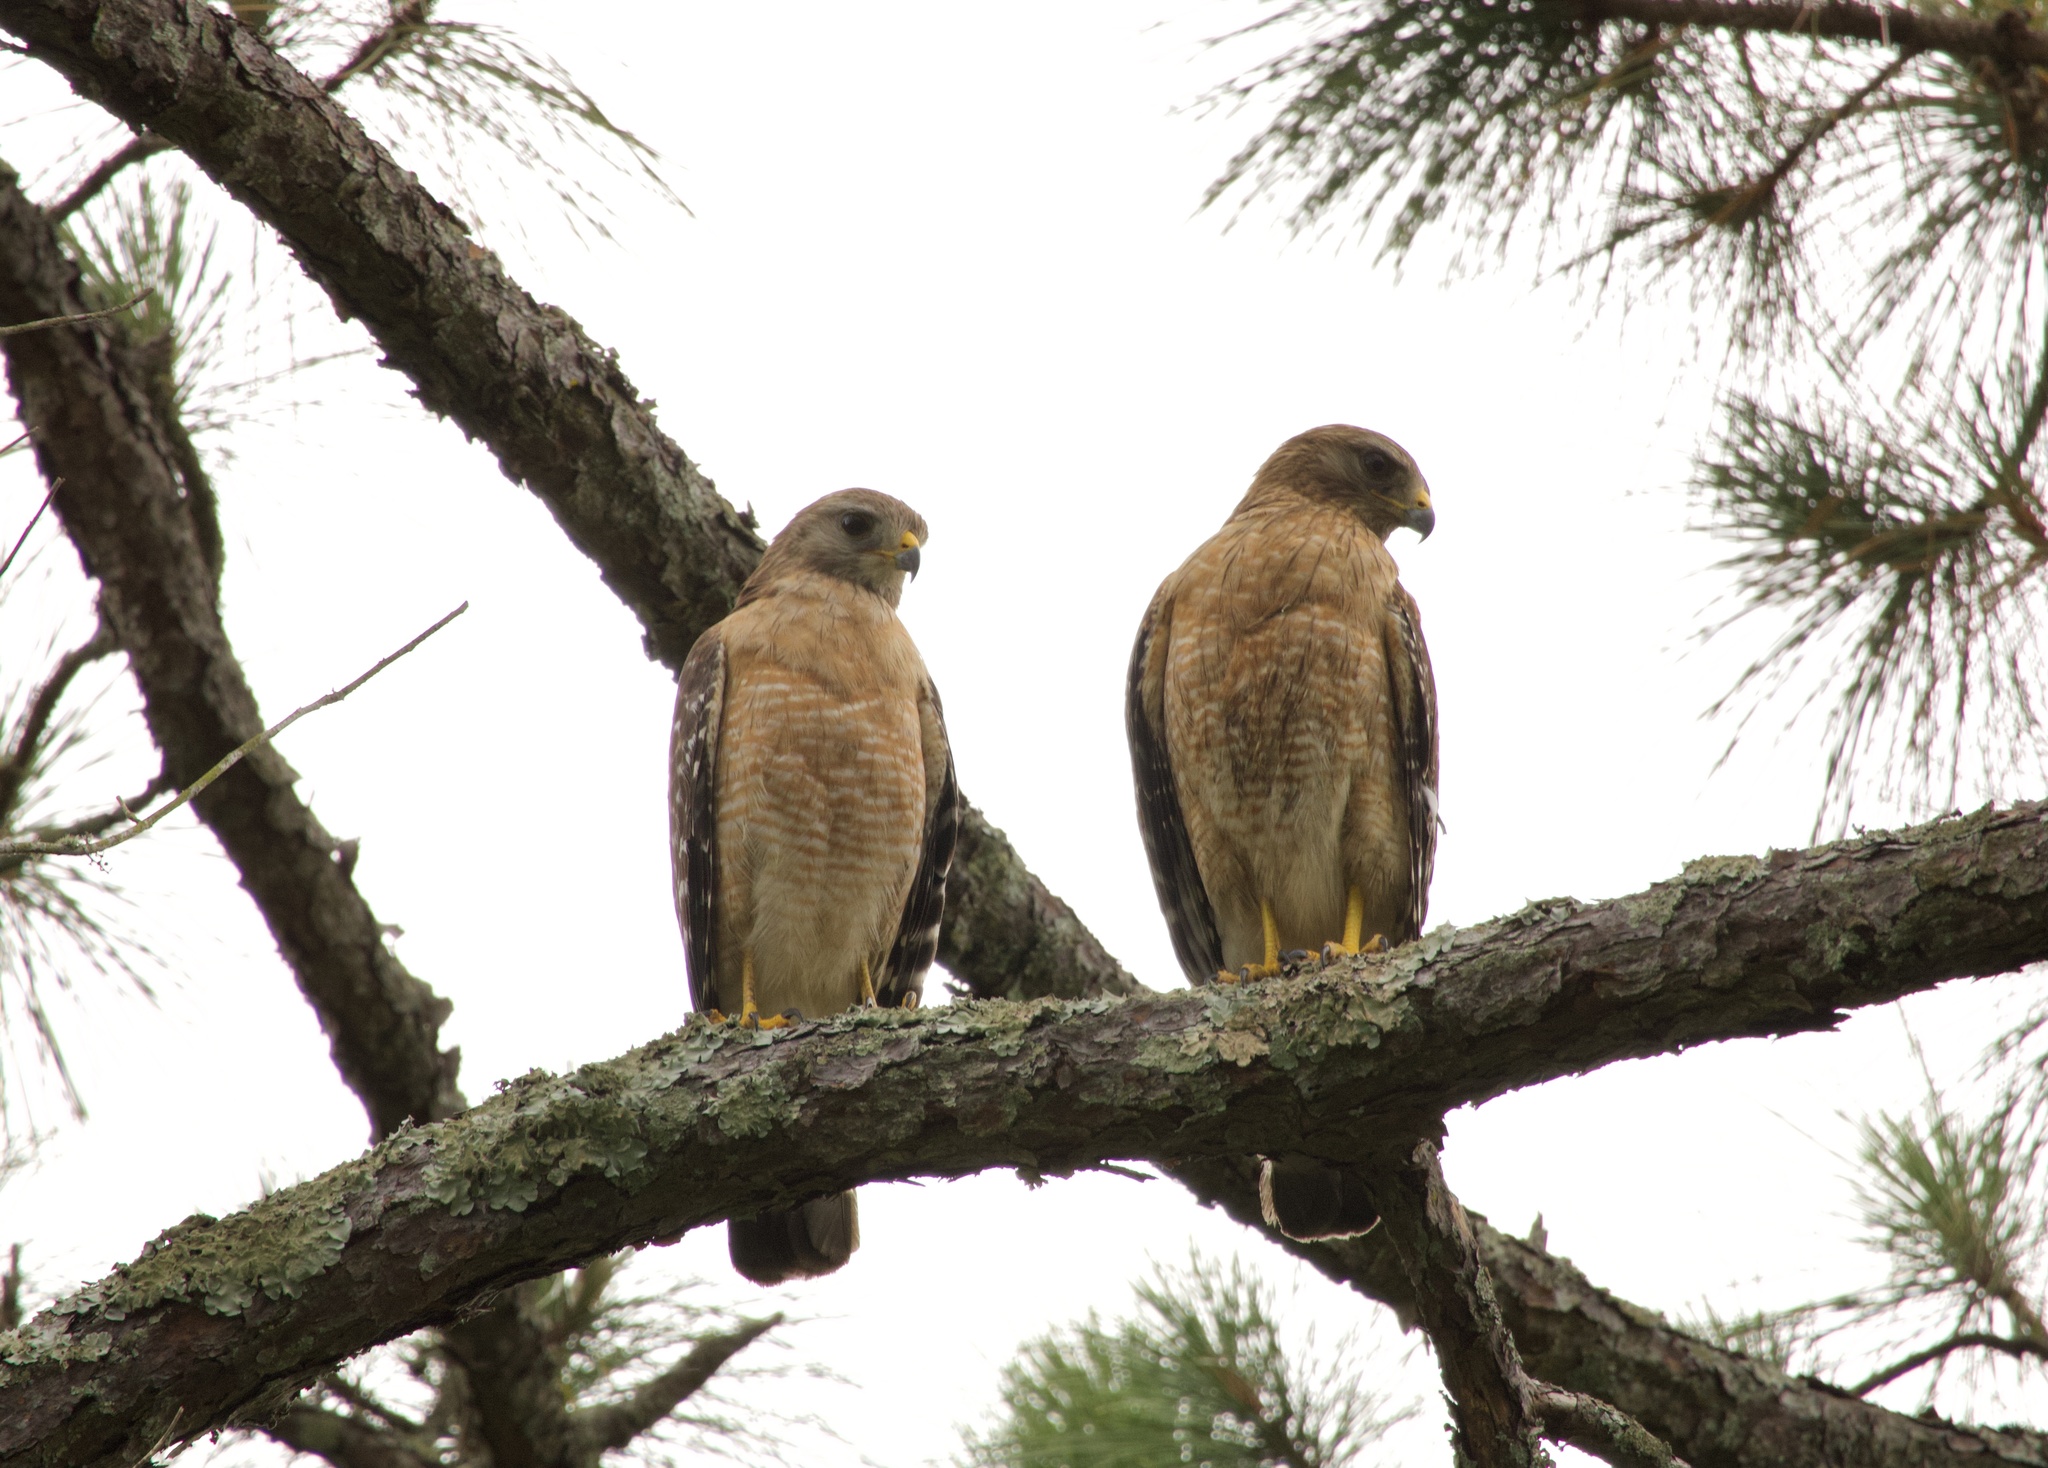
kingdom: Animalia
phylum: Chordata
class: Aves
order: Accipitriformes
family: Accipitridae
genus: Buteo
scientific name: Buteo lineatus
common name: Red-shouldered hawk
